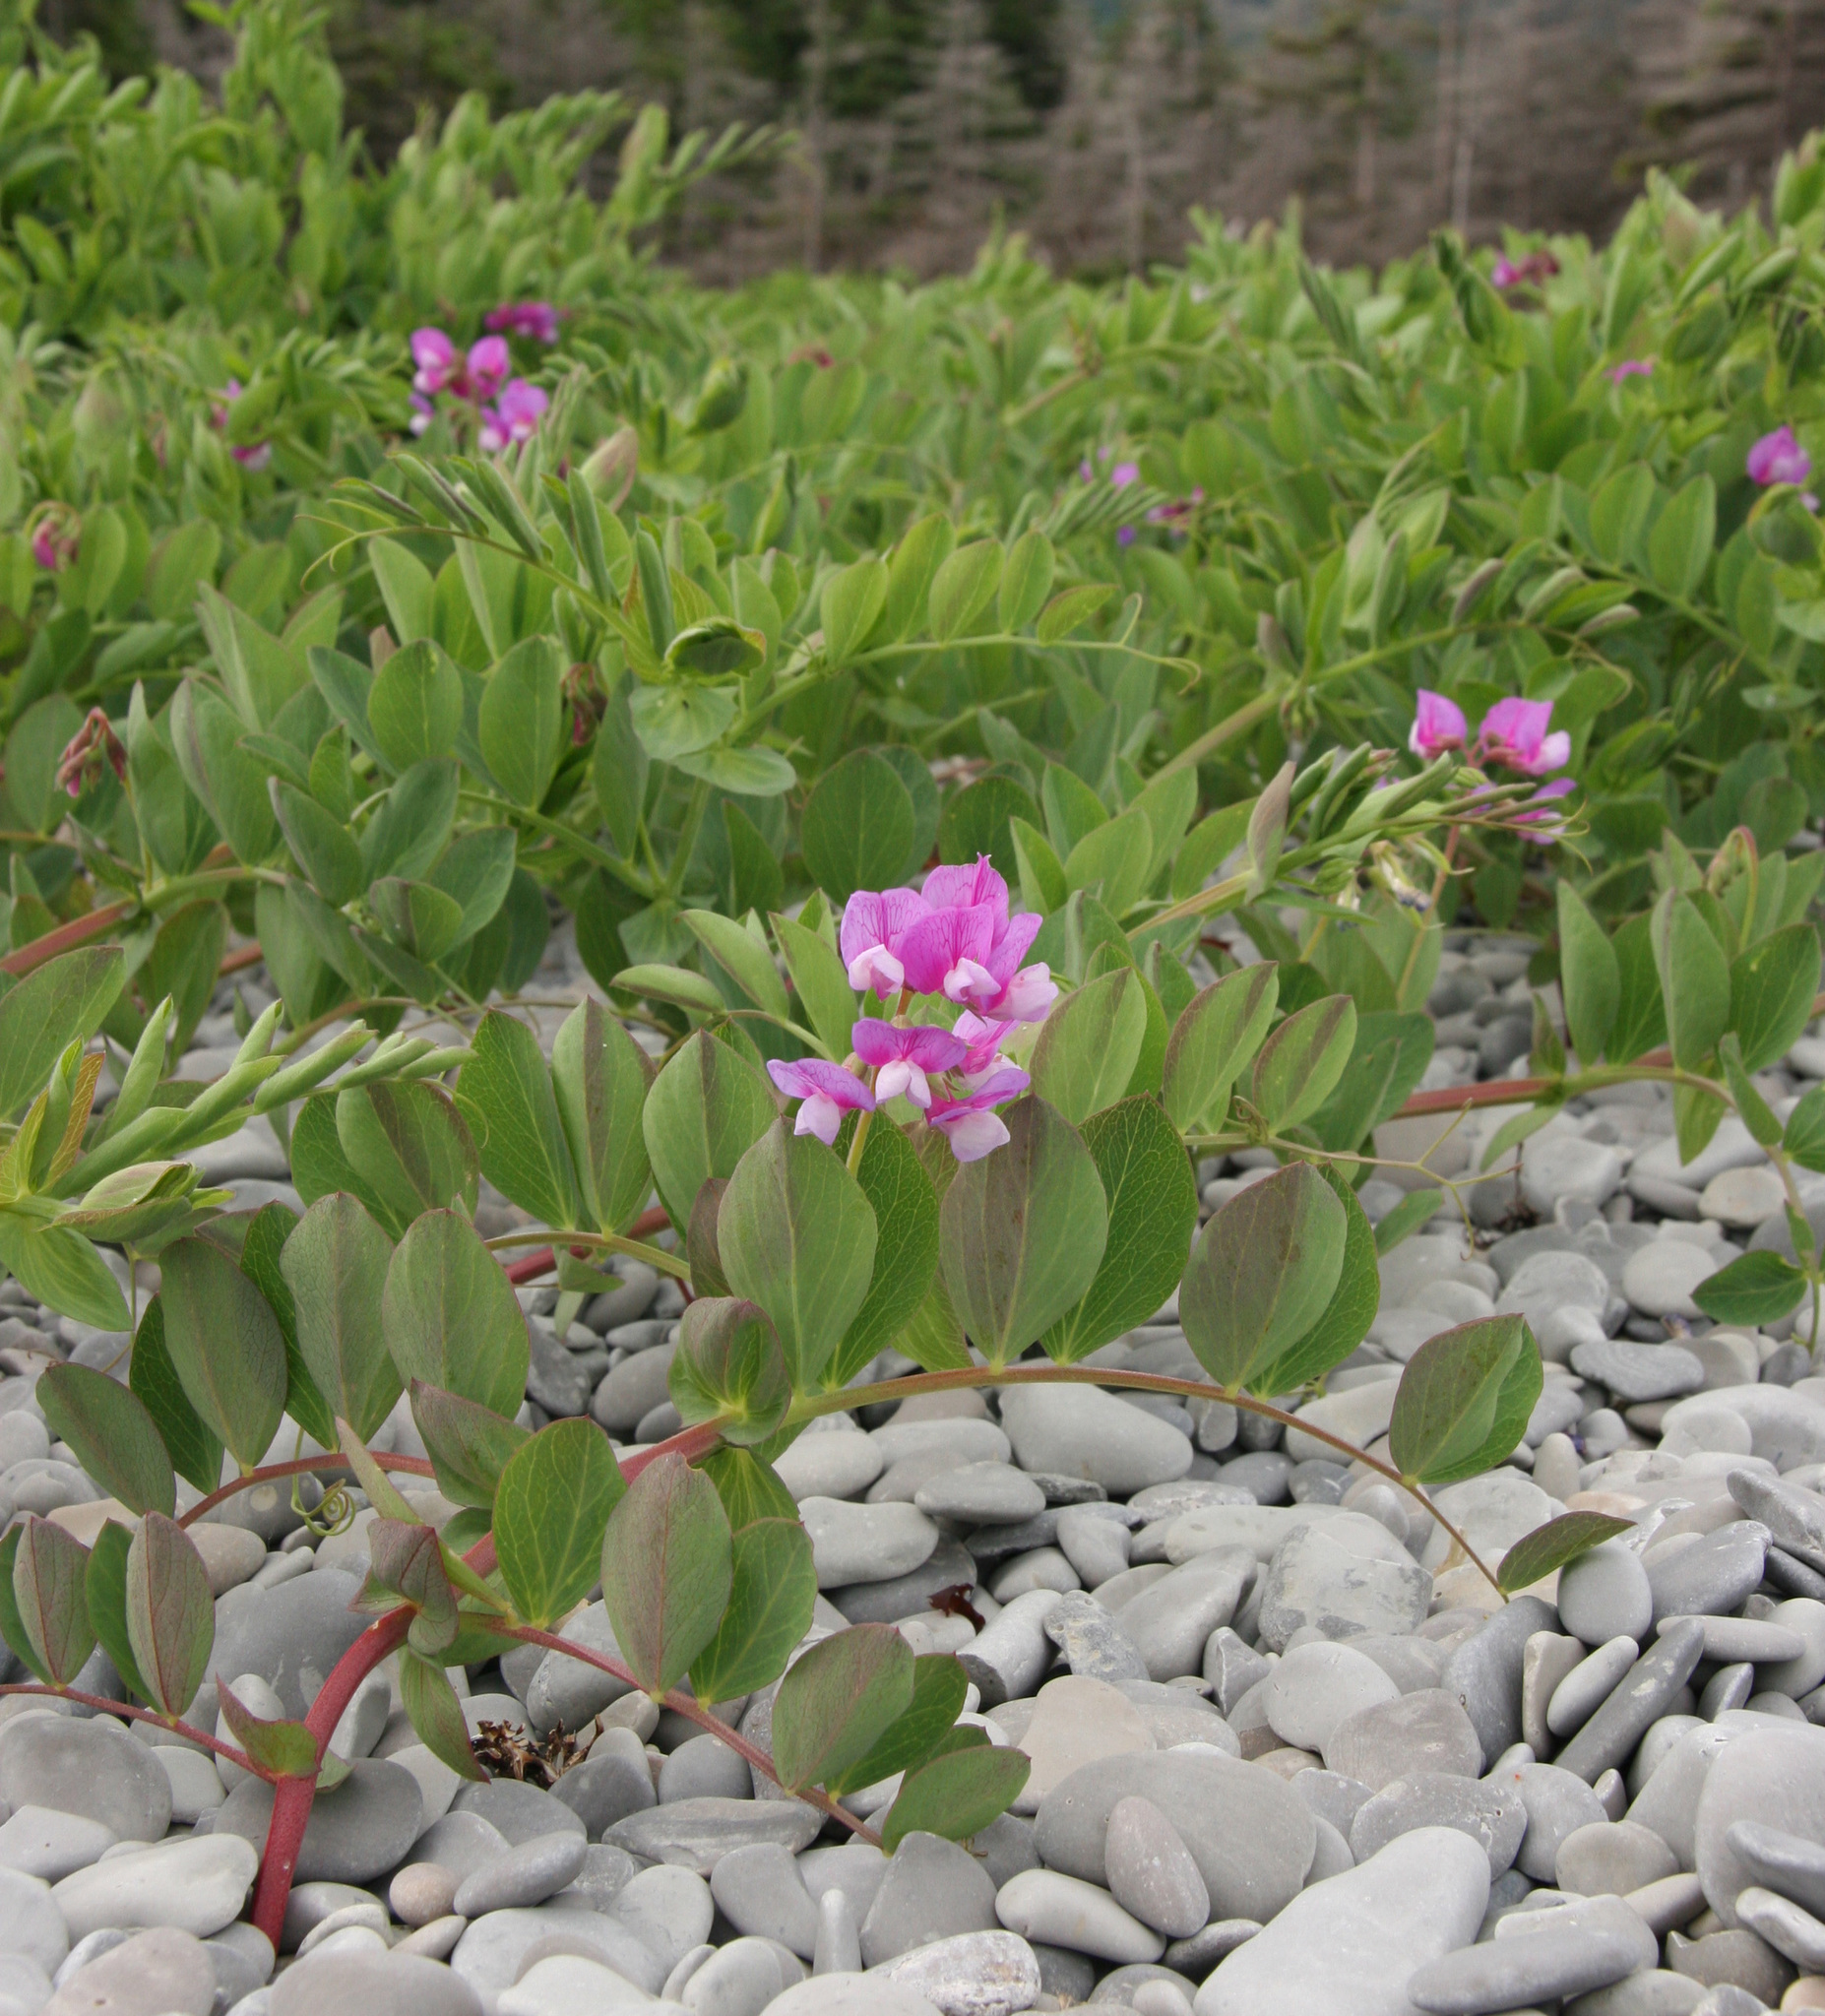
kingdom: Plantae
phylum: Tracheophyta
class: Magnoliopsida
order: Fabales
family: Fabaceae
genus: Lathyrus
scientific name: Lathyrus japonicus
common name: Sea pea
